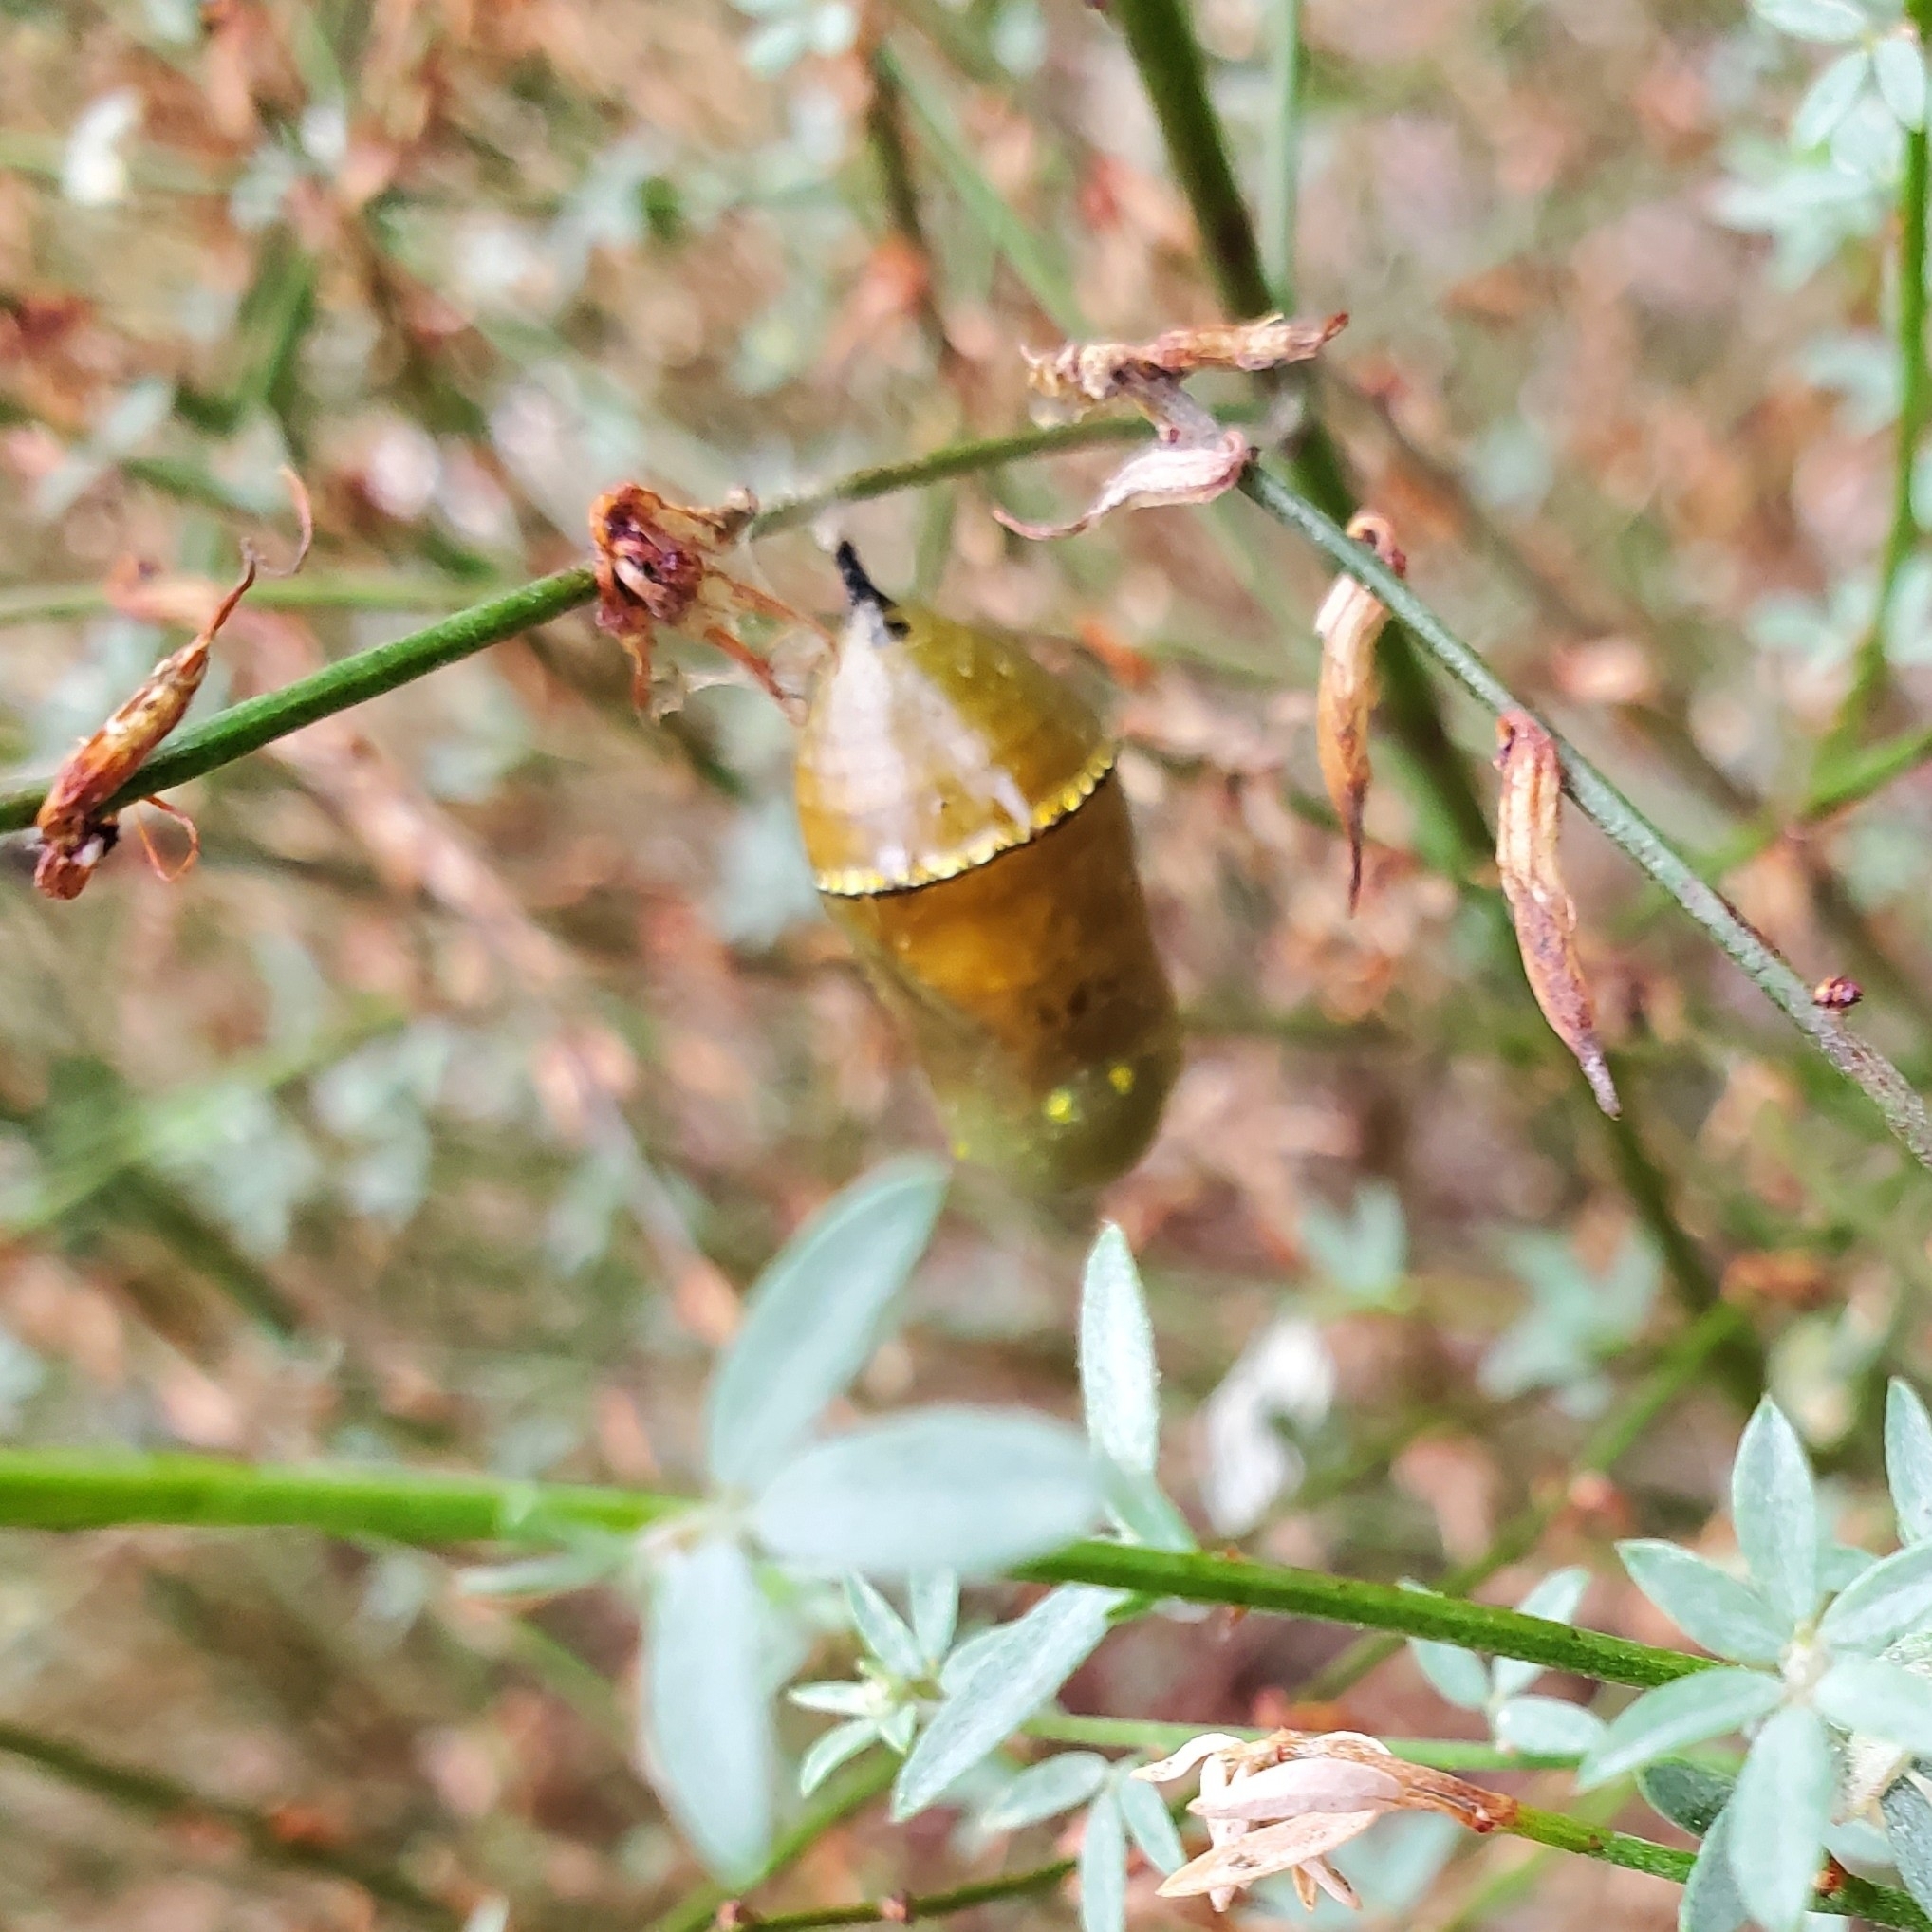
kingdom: Animalia
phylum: Arthropoda
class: Insecta
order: Lepidoptera
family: Nymphalidae
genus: Danaus
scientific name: Danaus plexippus
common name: Monarch
